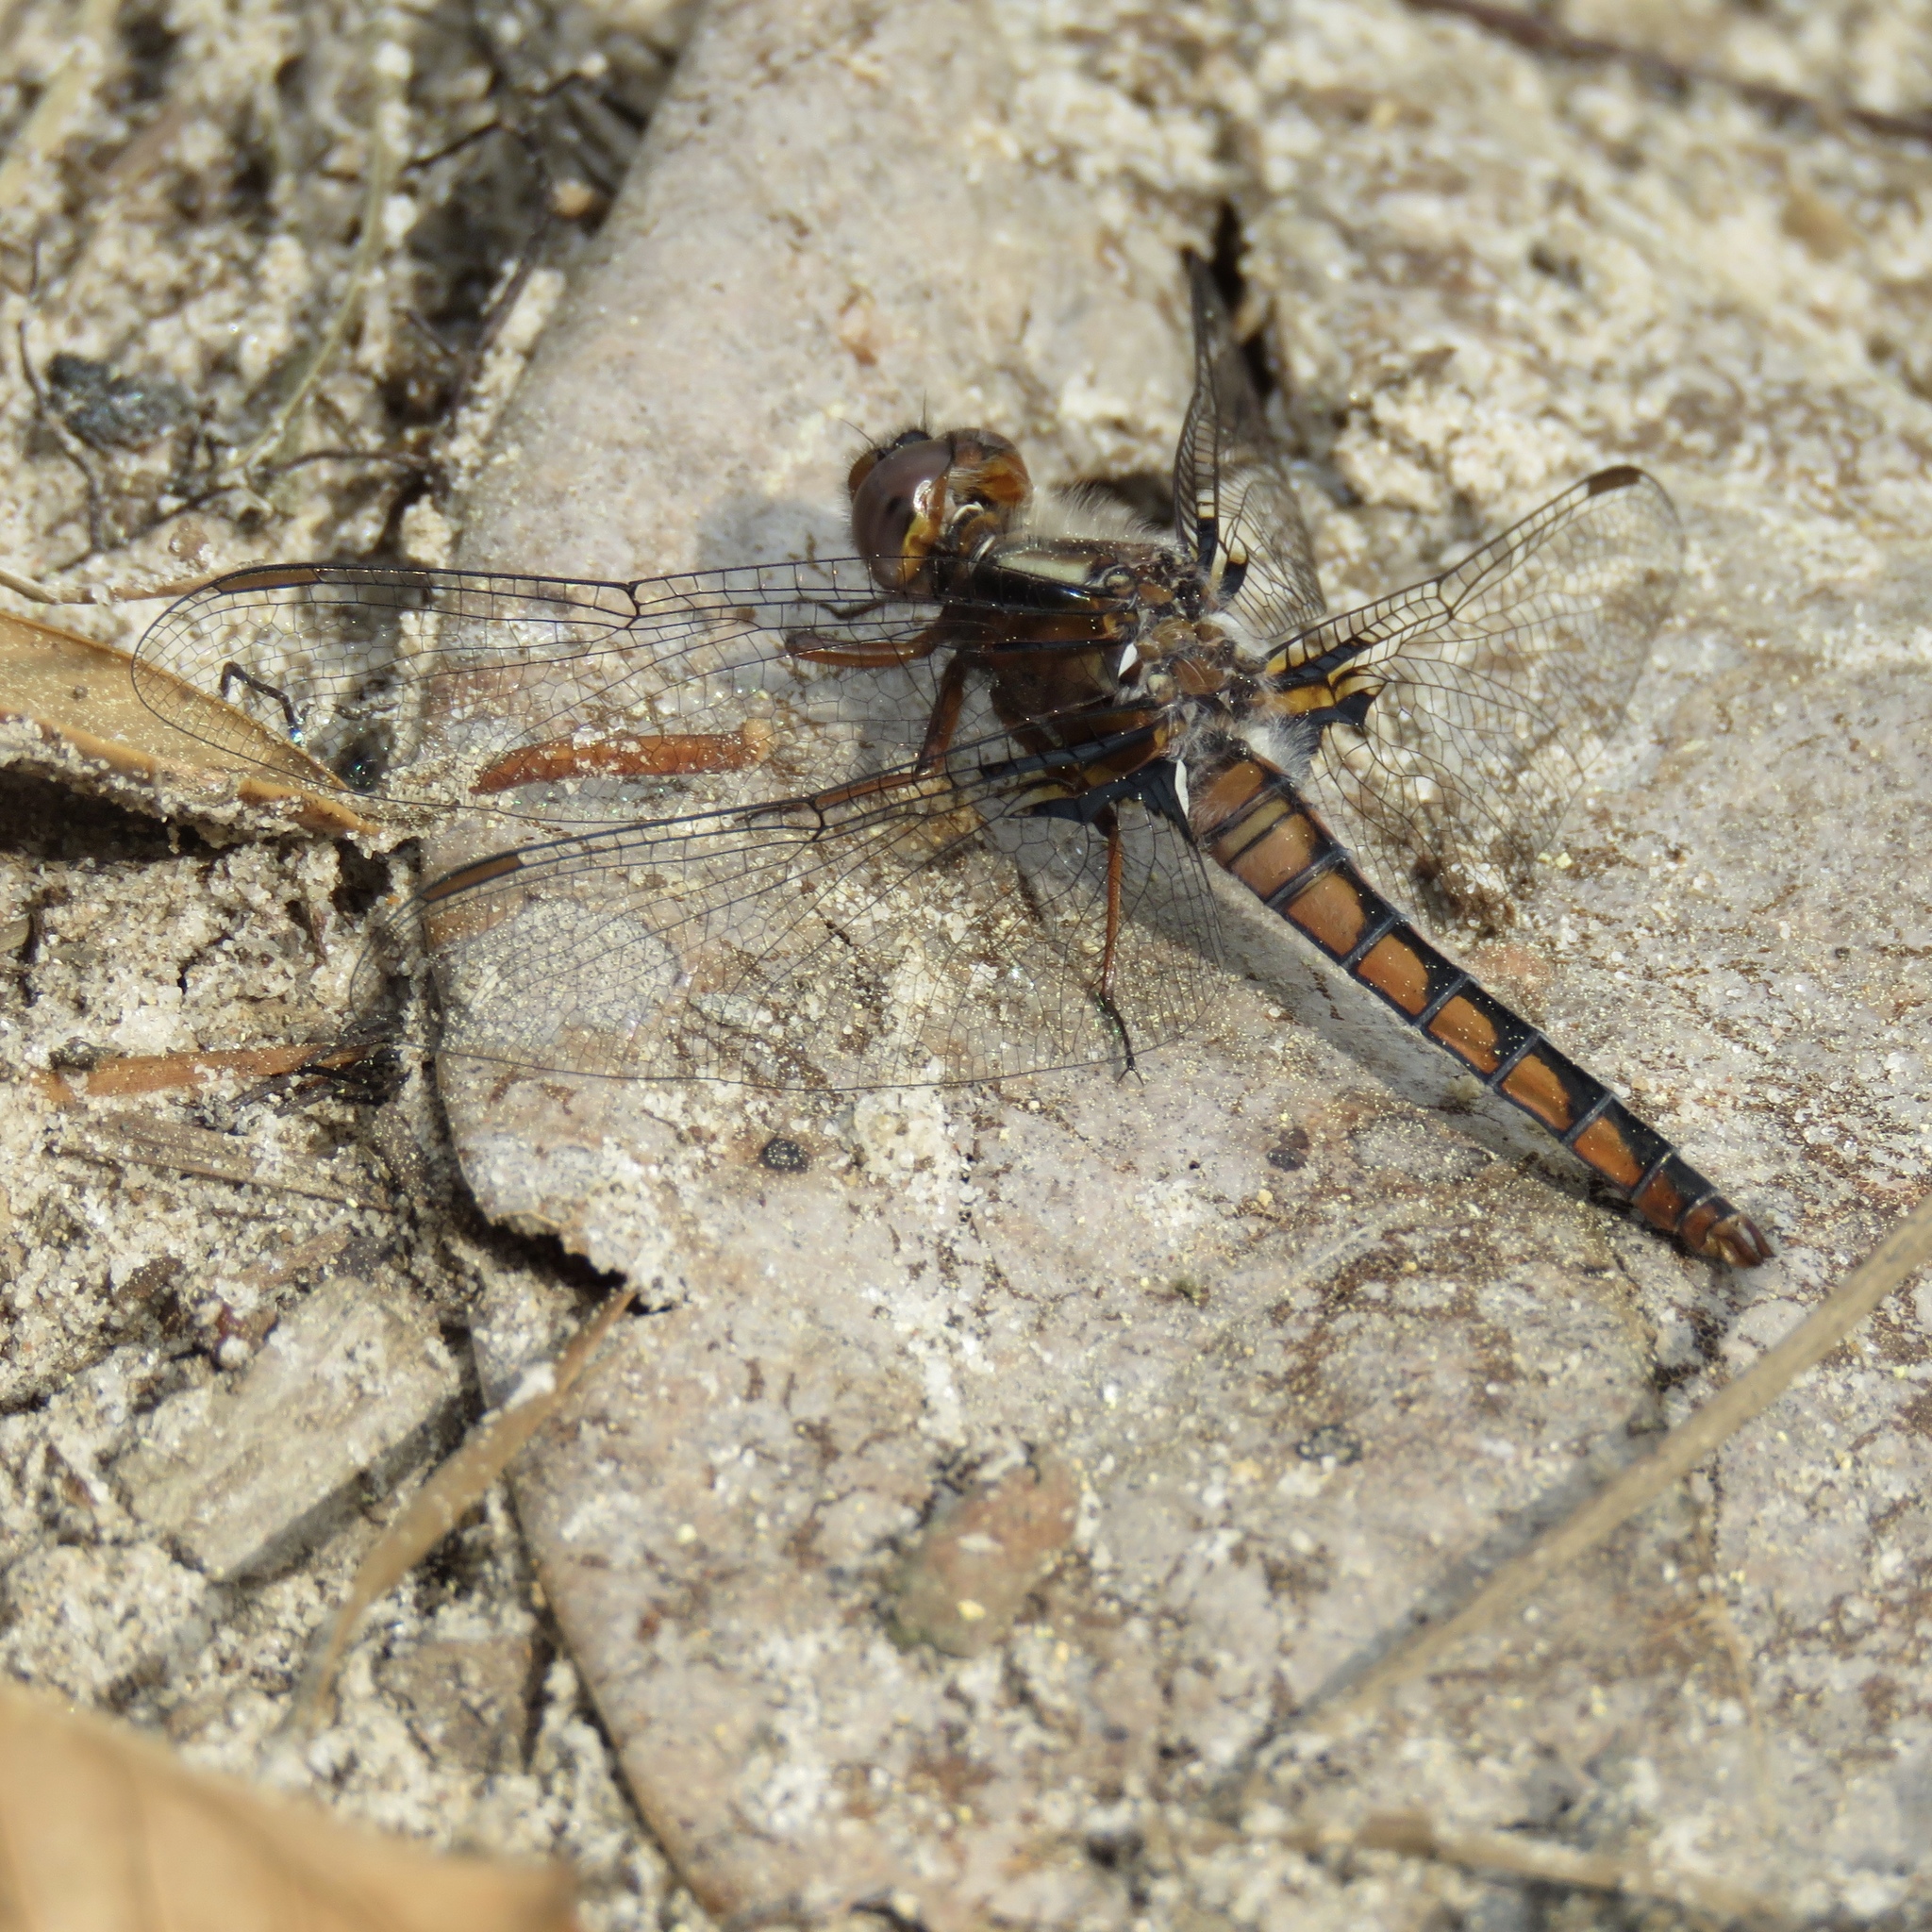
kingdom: Animalia
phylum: Arthropoda
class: Insecta
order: Odonata
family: Libellulidae
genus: Ladona
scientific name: Ladona deplanata
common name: Blue corporal
